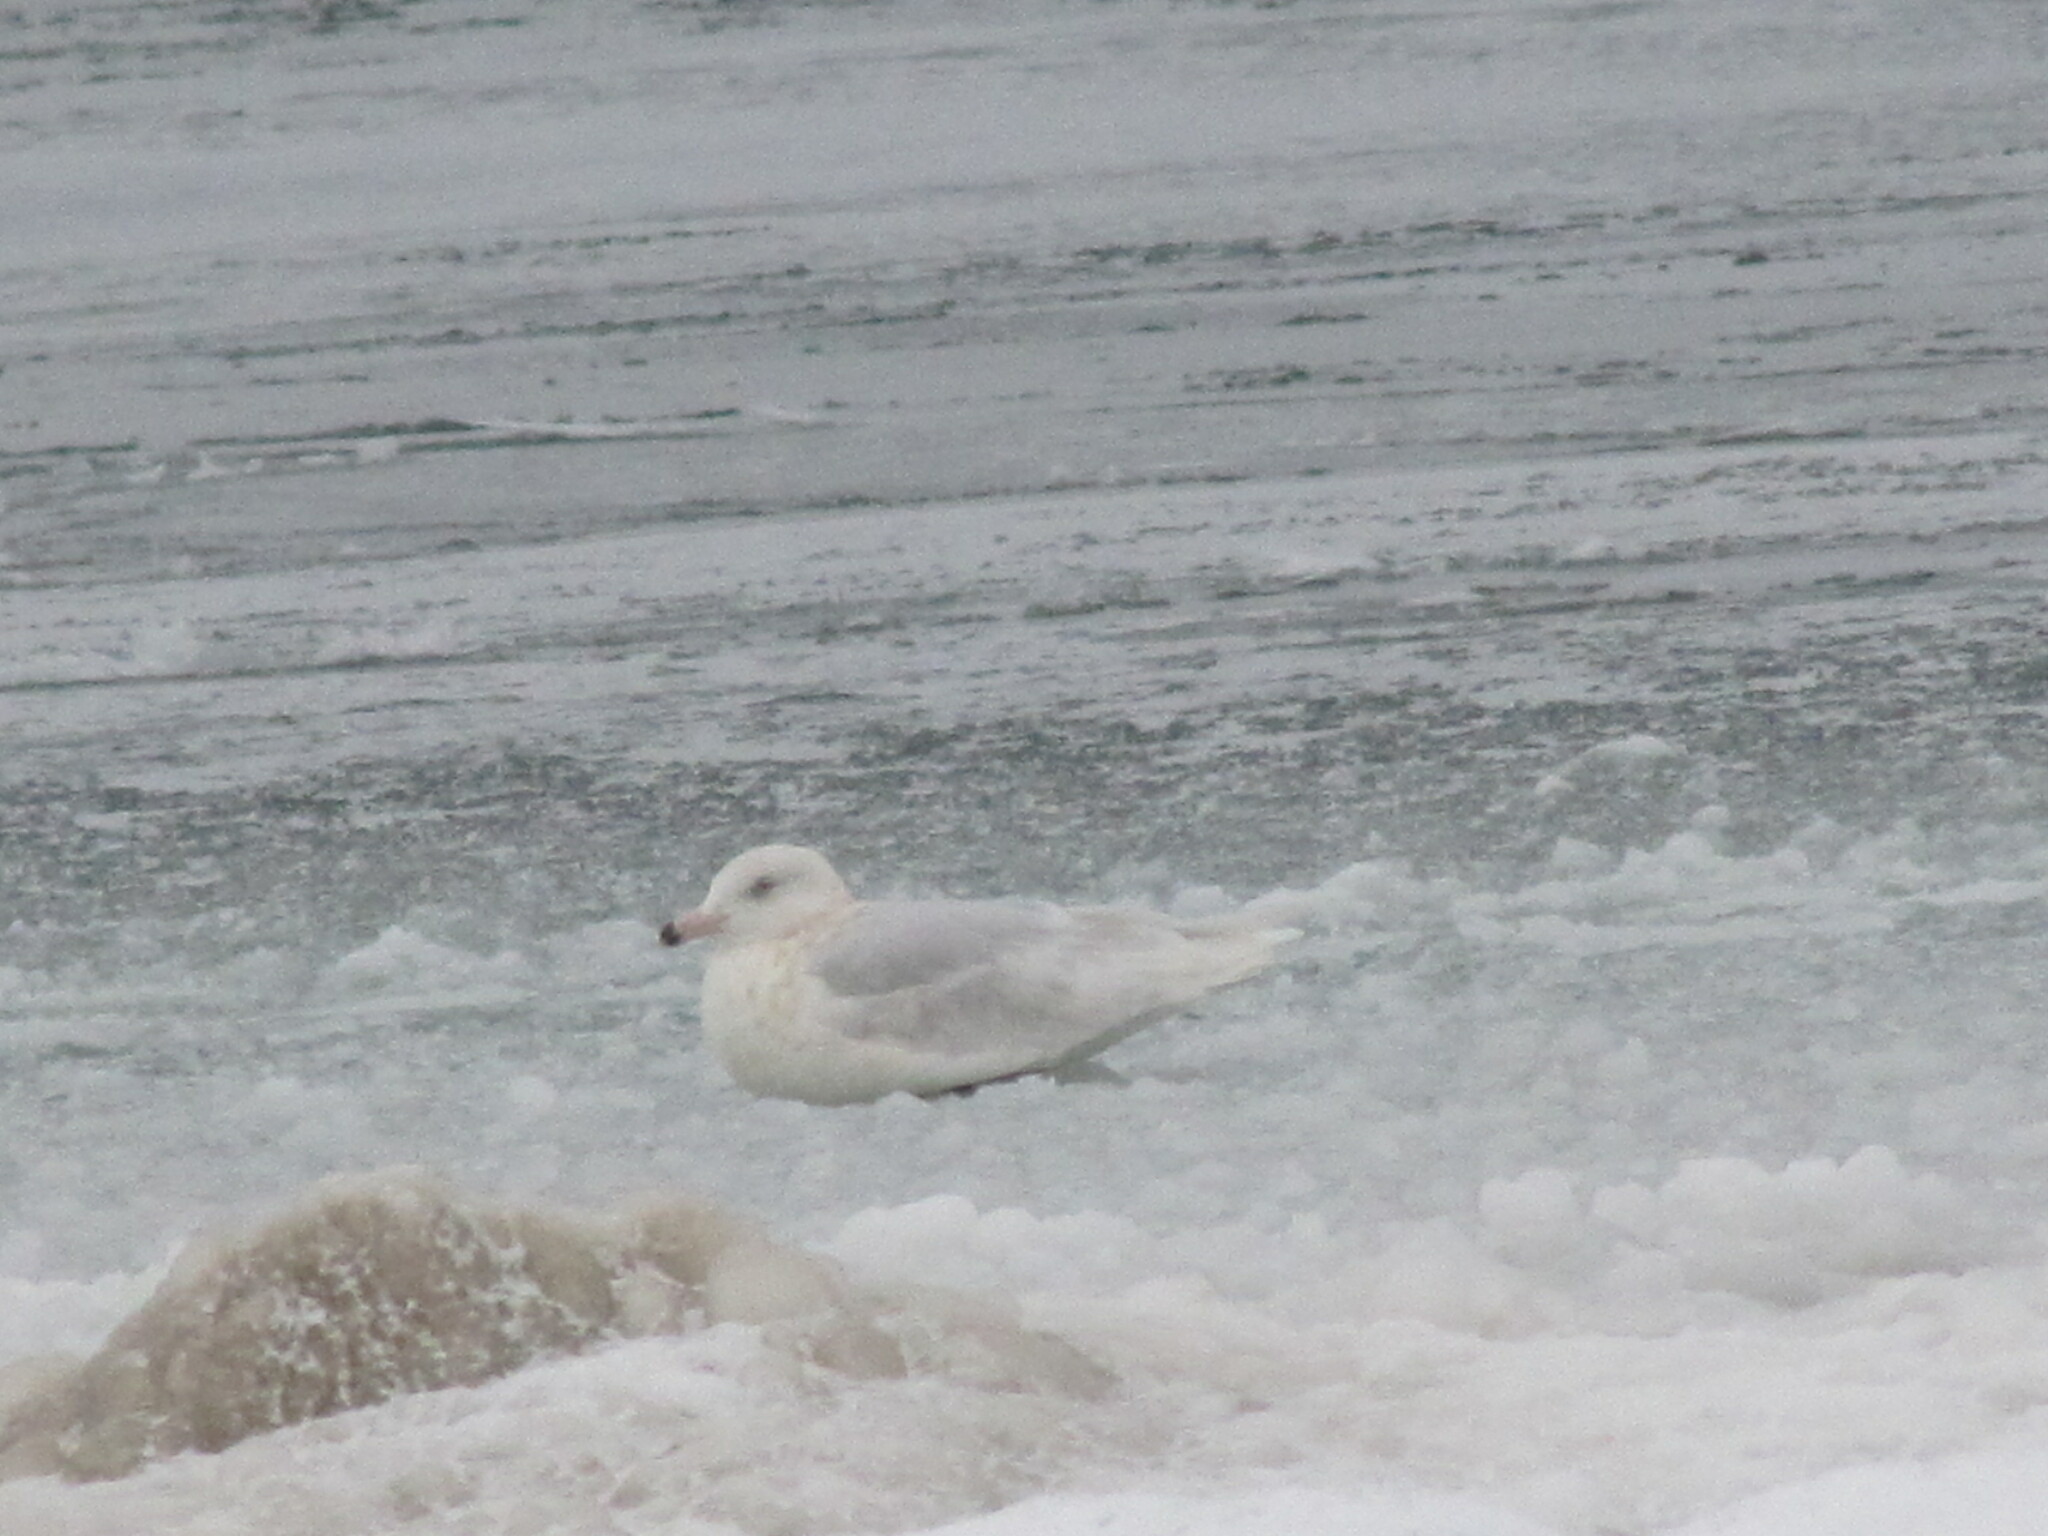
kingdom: Animalia
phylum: Chordata
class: Aves
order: Charadriiformes
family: Laridae
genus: Larus
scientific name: Larus hyperboreus
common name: Glaucous gull
